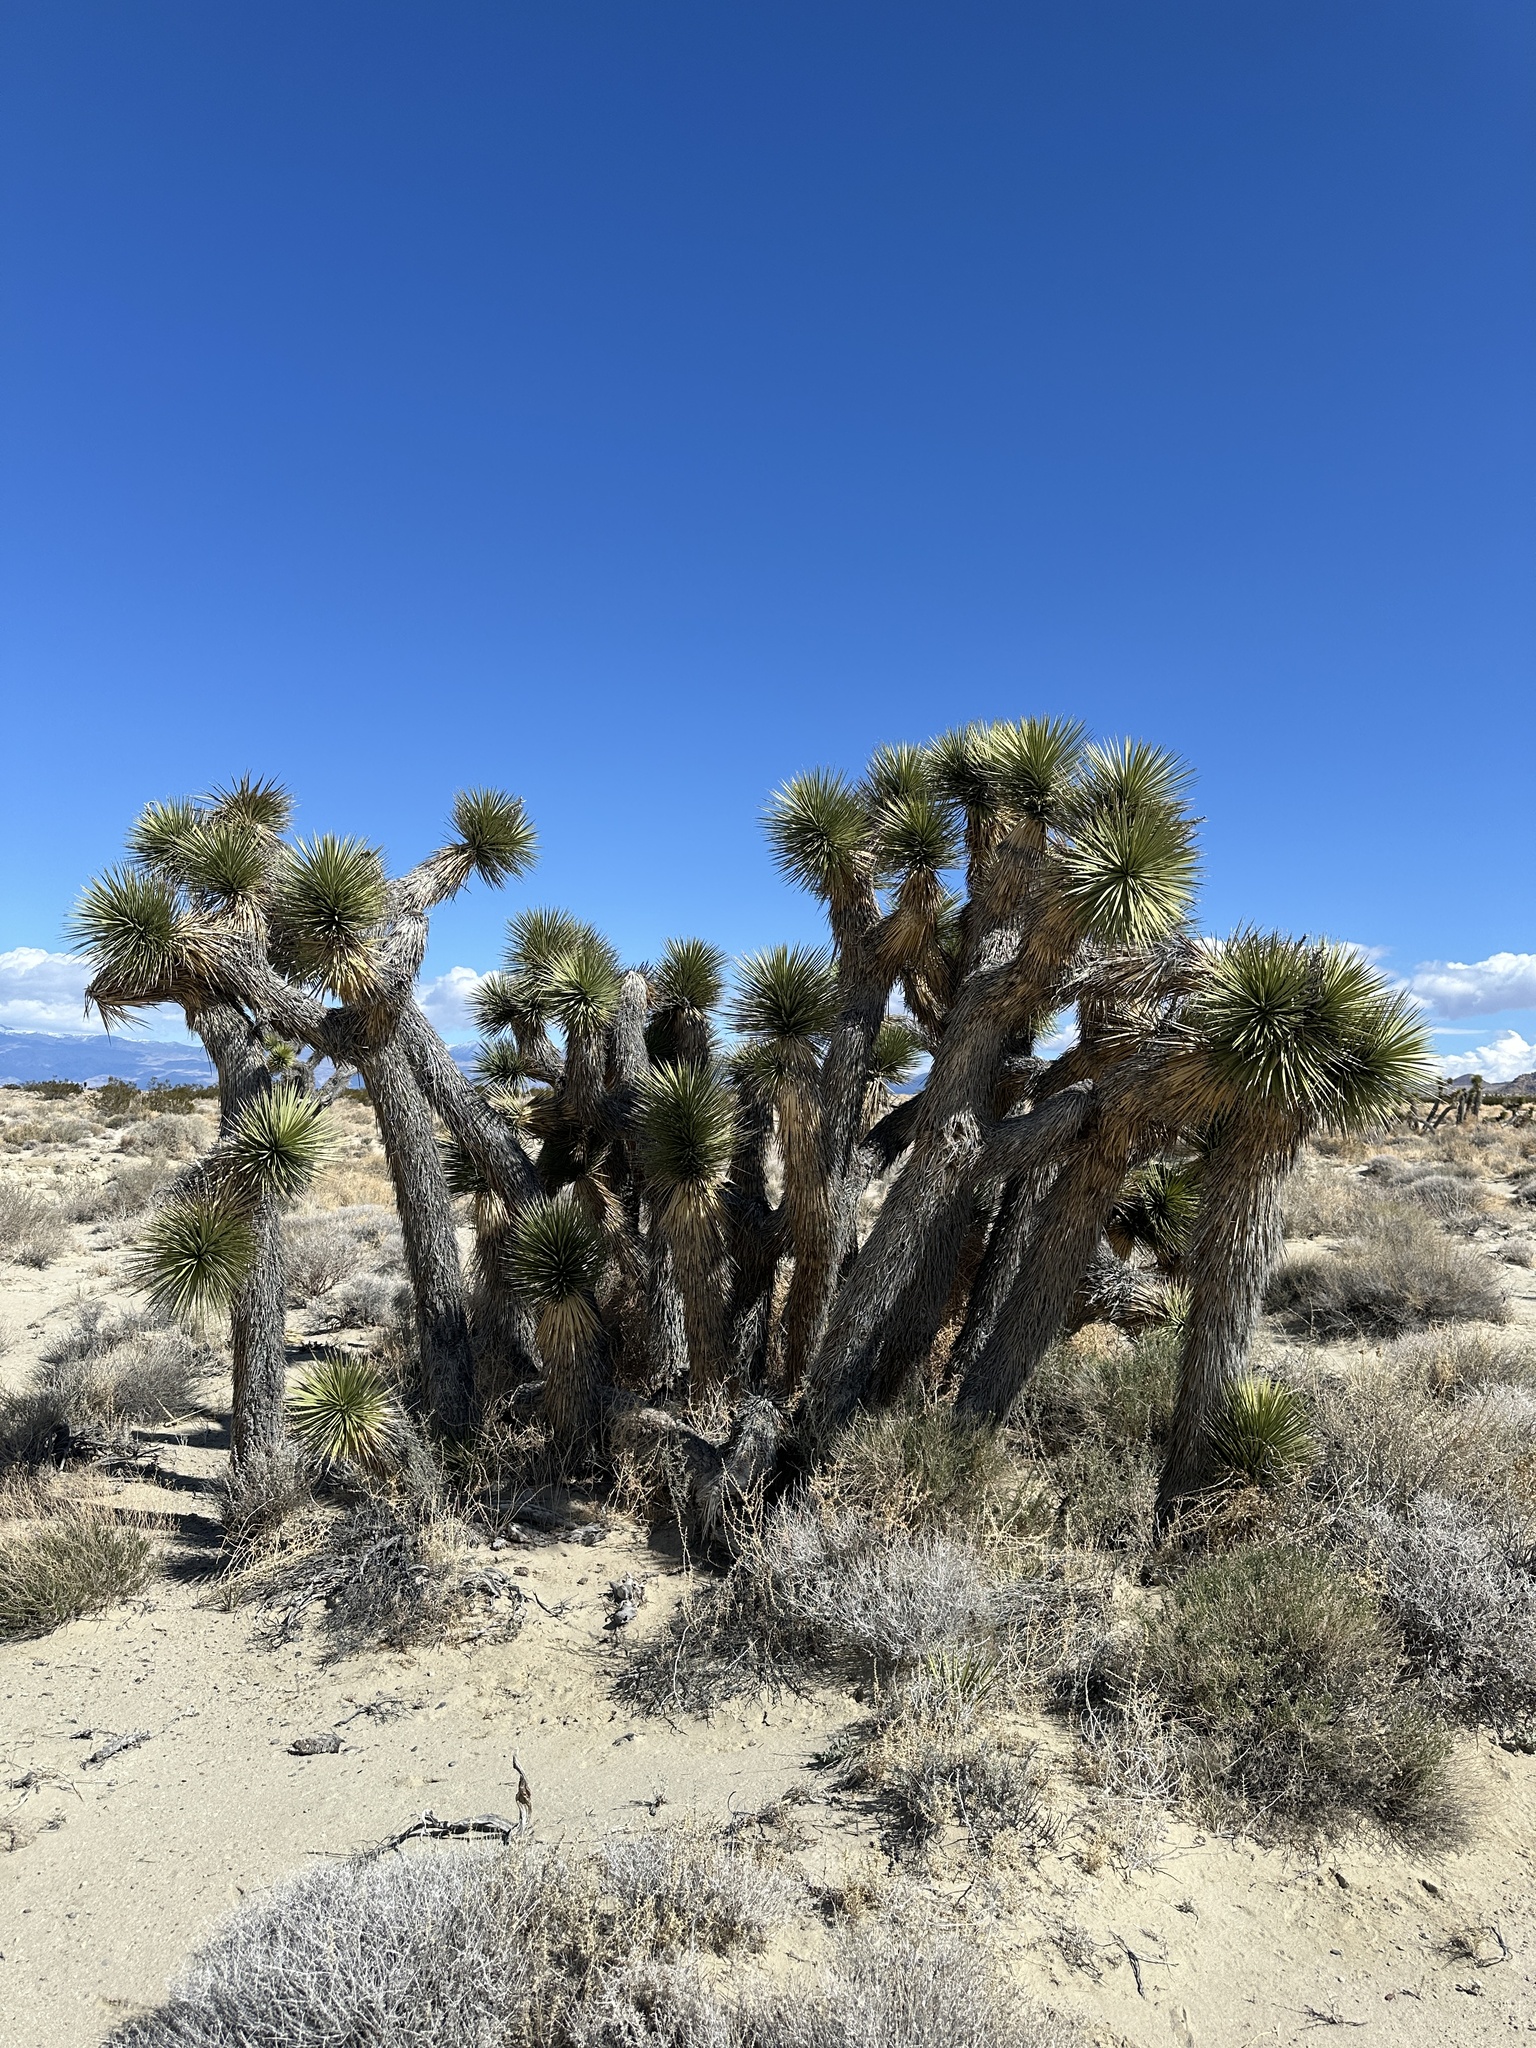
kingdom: Plantae
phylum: Tracheophyta
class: Liliopsida
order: Asparagales
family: Asparagaceae
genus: Yucca
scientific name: Yucca brevifolia
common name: Joshua tree
